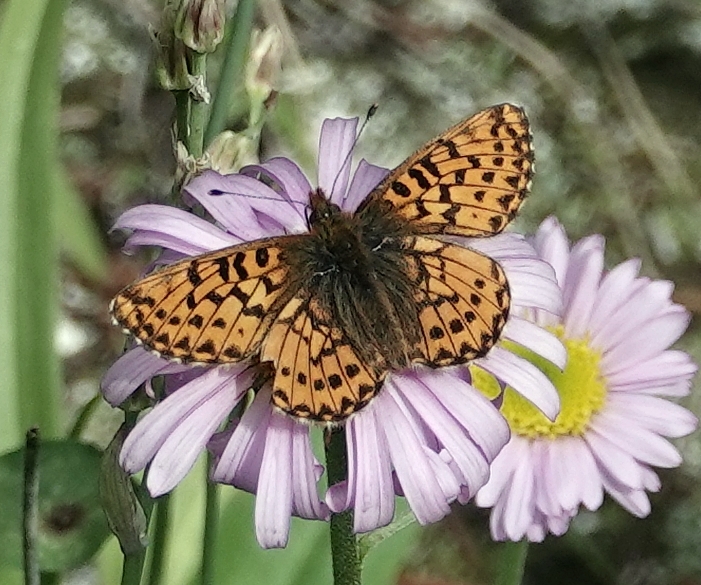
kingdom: Animalia
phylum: Arthropoda
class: Insecta
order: Lepidoptera
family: Nymphalidae
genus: Boloria
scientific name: Boloria chariclea
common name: Arctic fritillary
